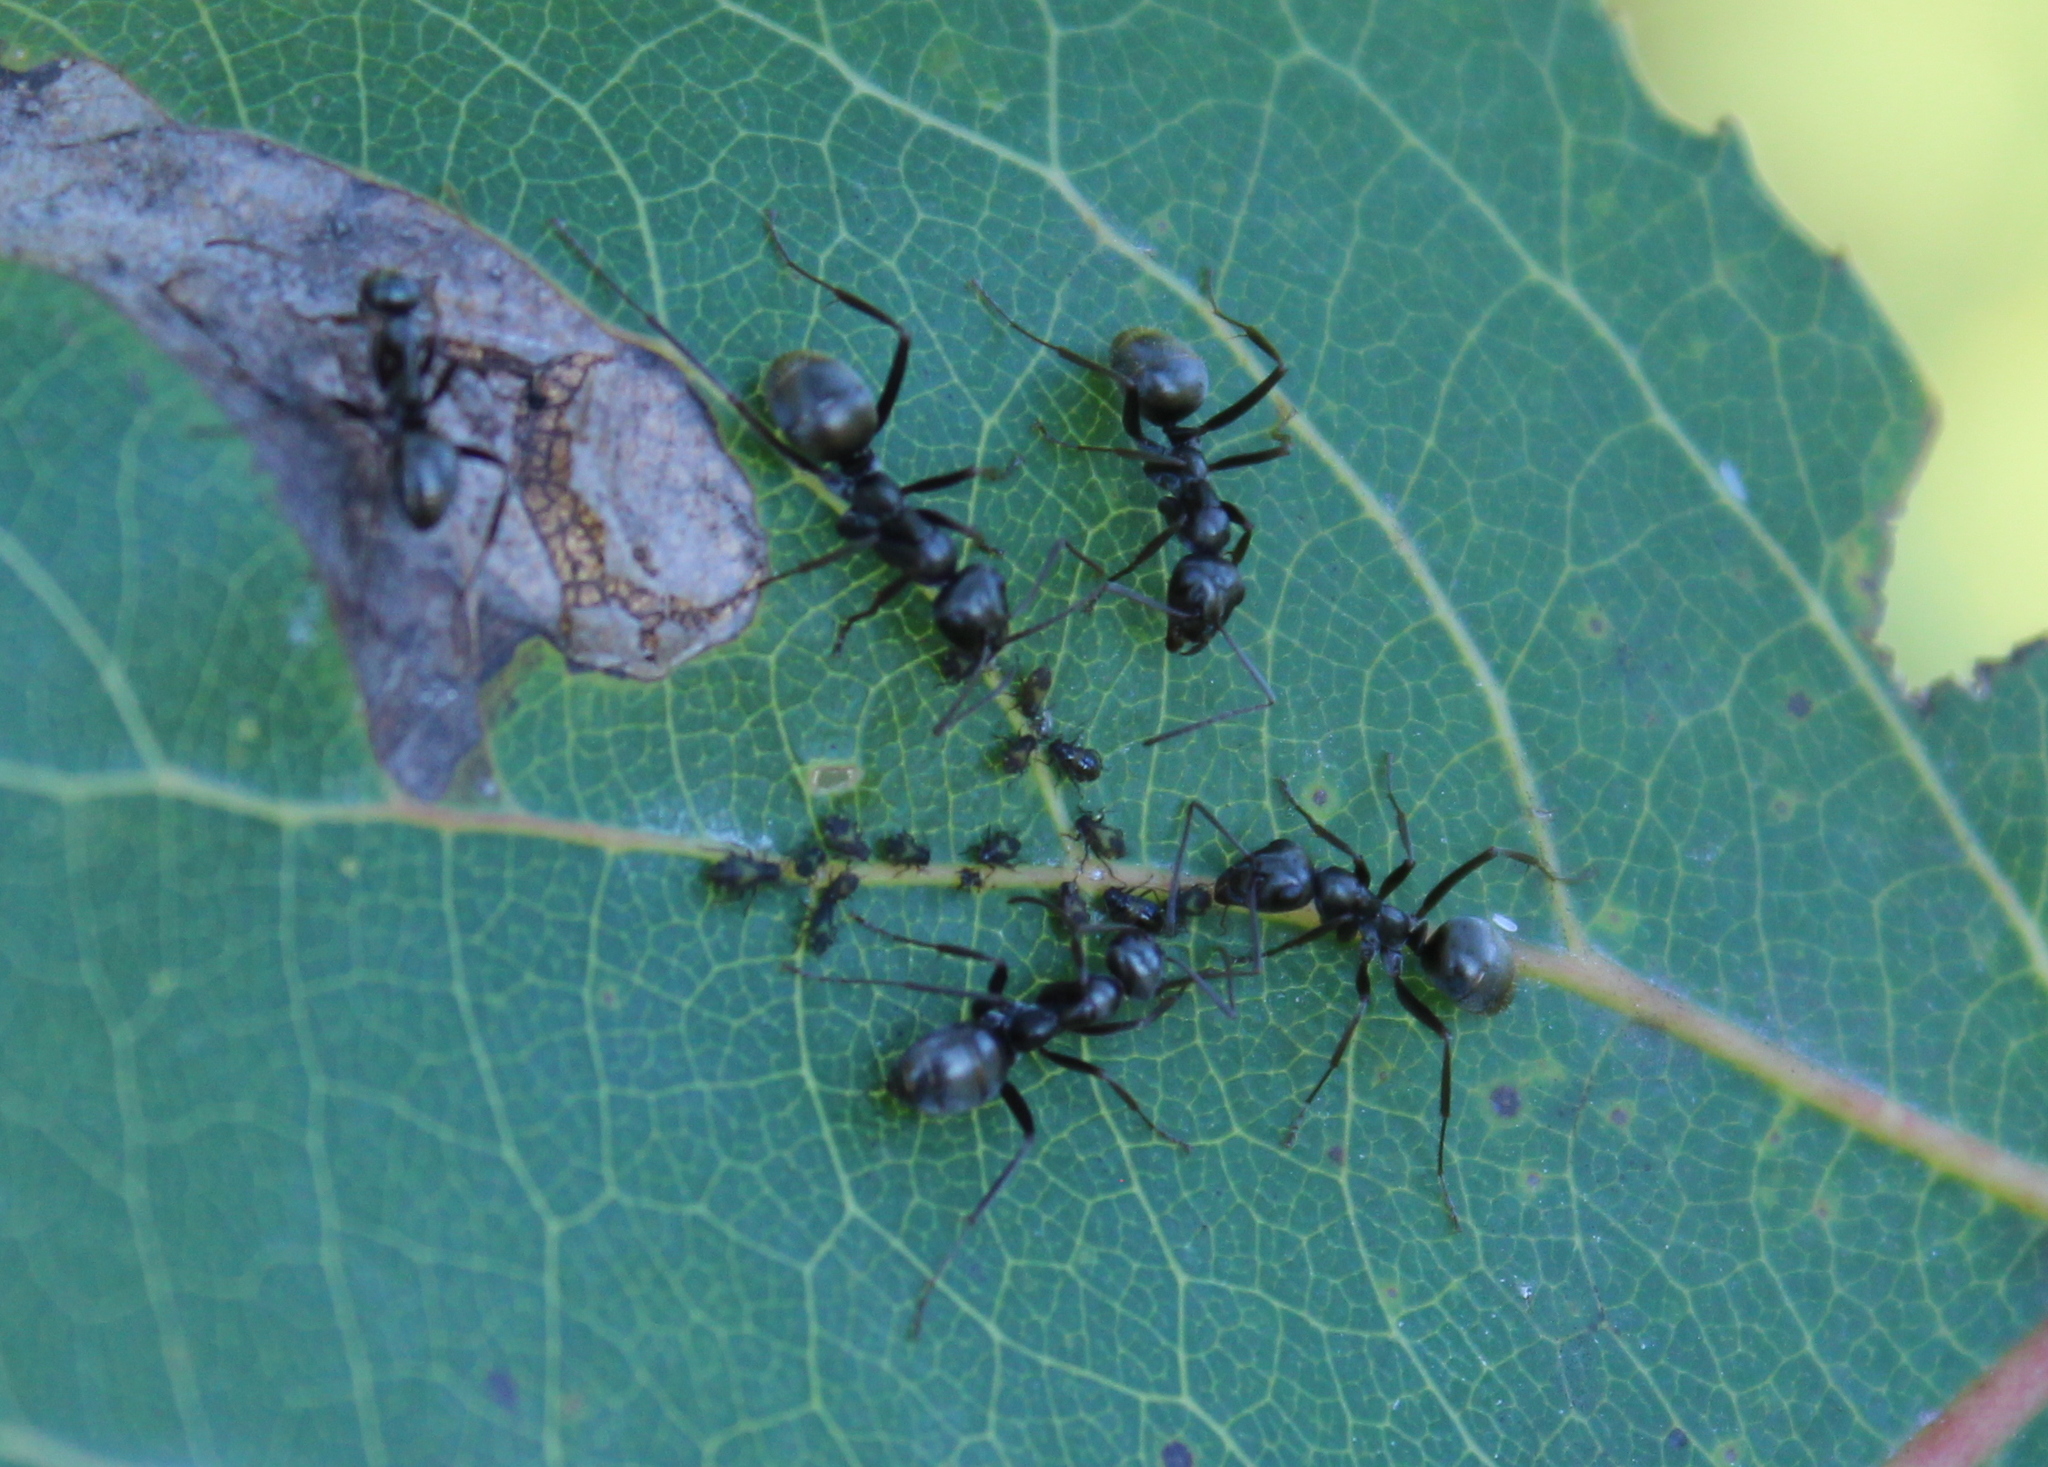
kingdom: Animalia
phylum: Arthropoda
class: Insecta
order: Hymenoptera
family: Formicidae
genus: Formica
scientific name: Formica
